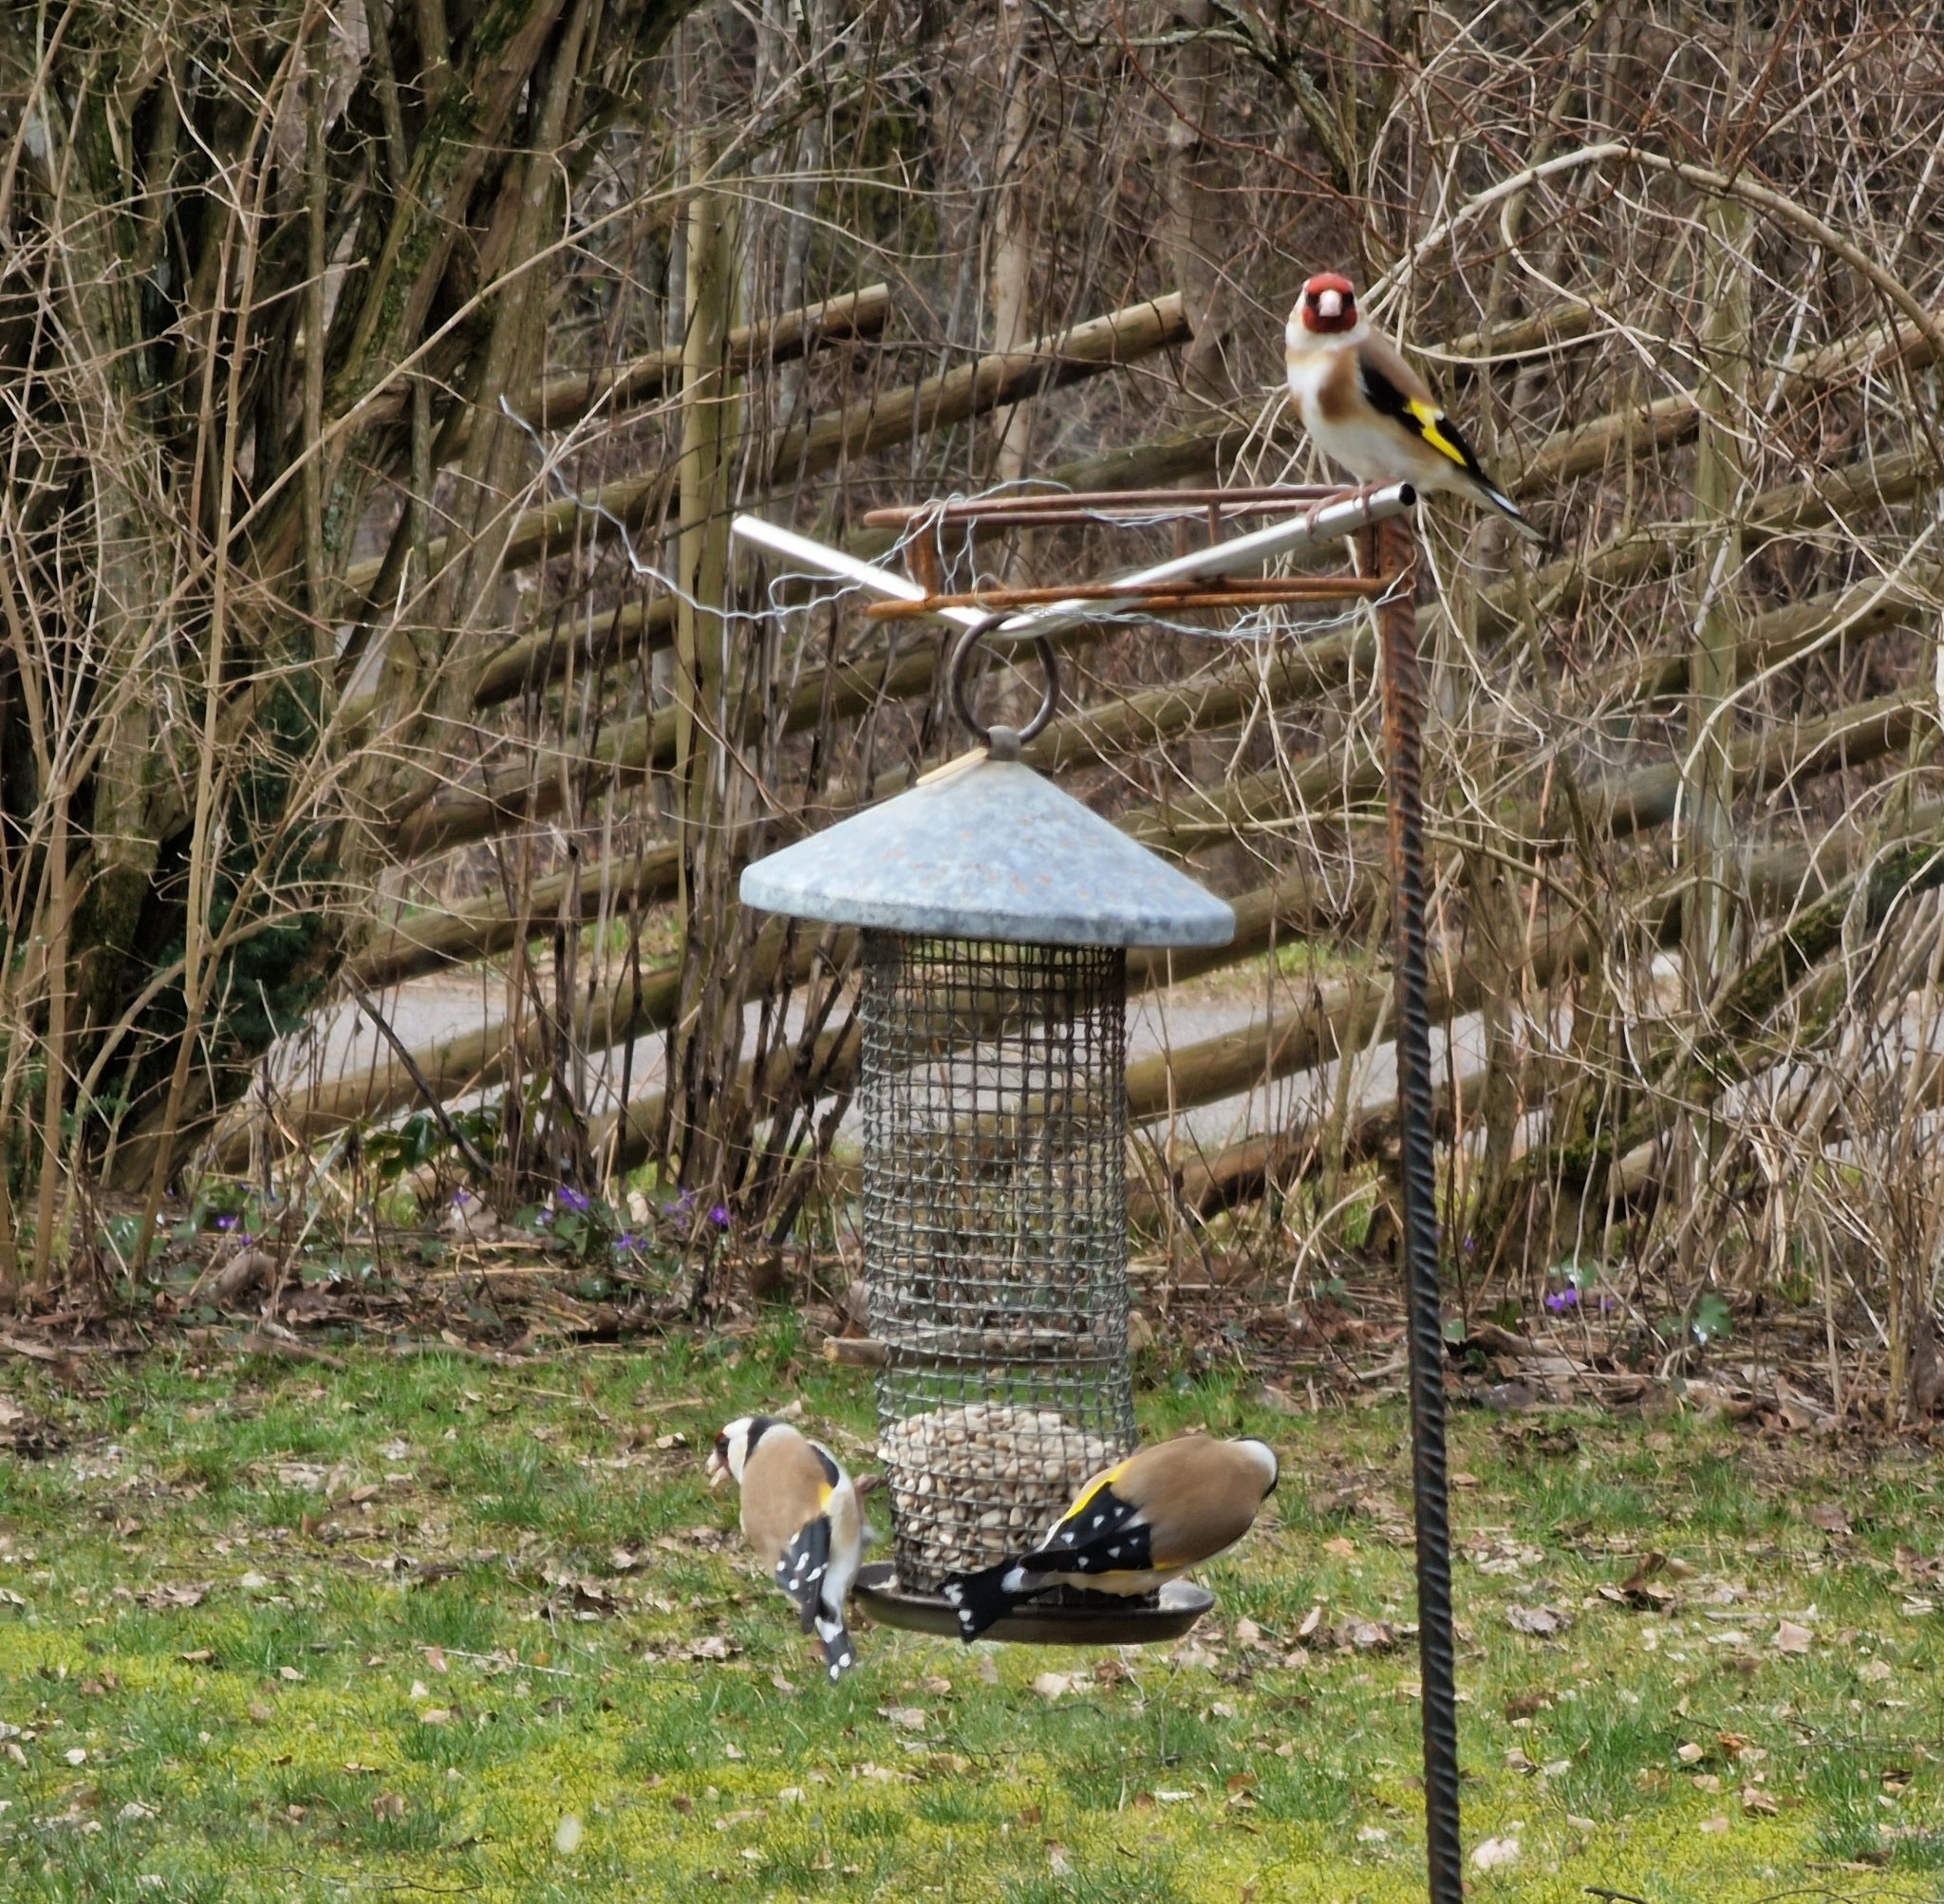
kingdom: Animalia
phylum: Chordata
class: Aves
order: Passeriformes
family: Fringillidae
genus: Carduelis
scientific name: Carduelis carduelis
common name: European goldfinch
